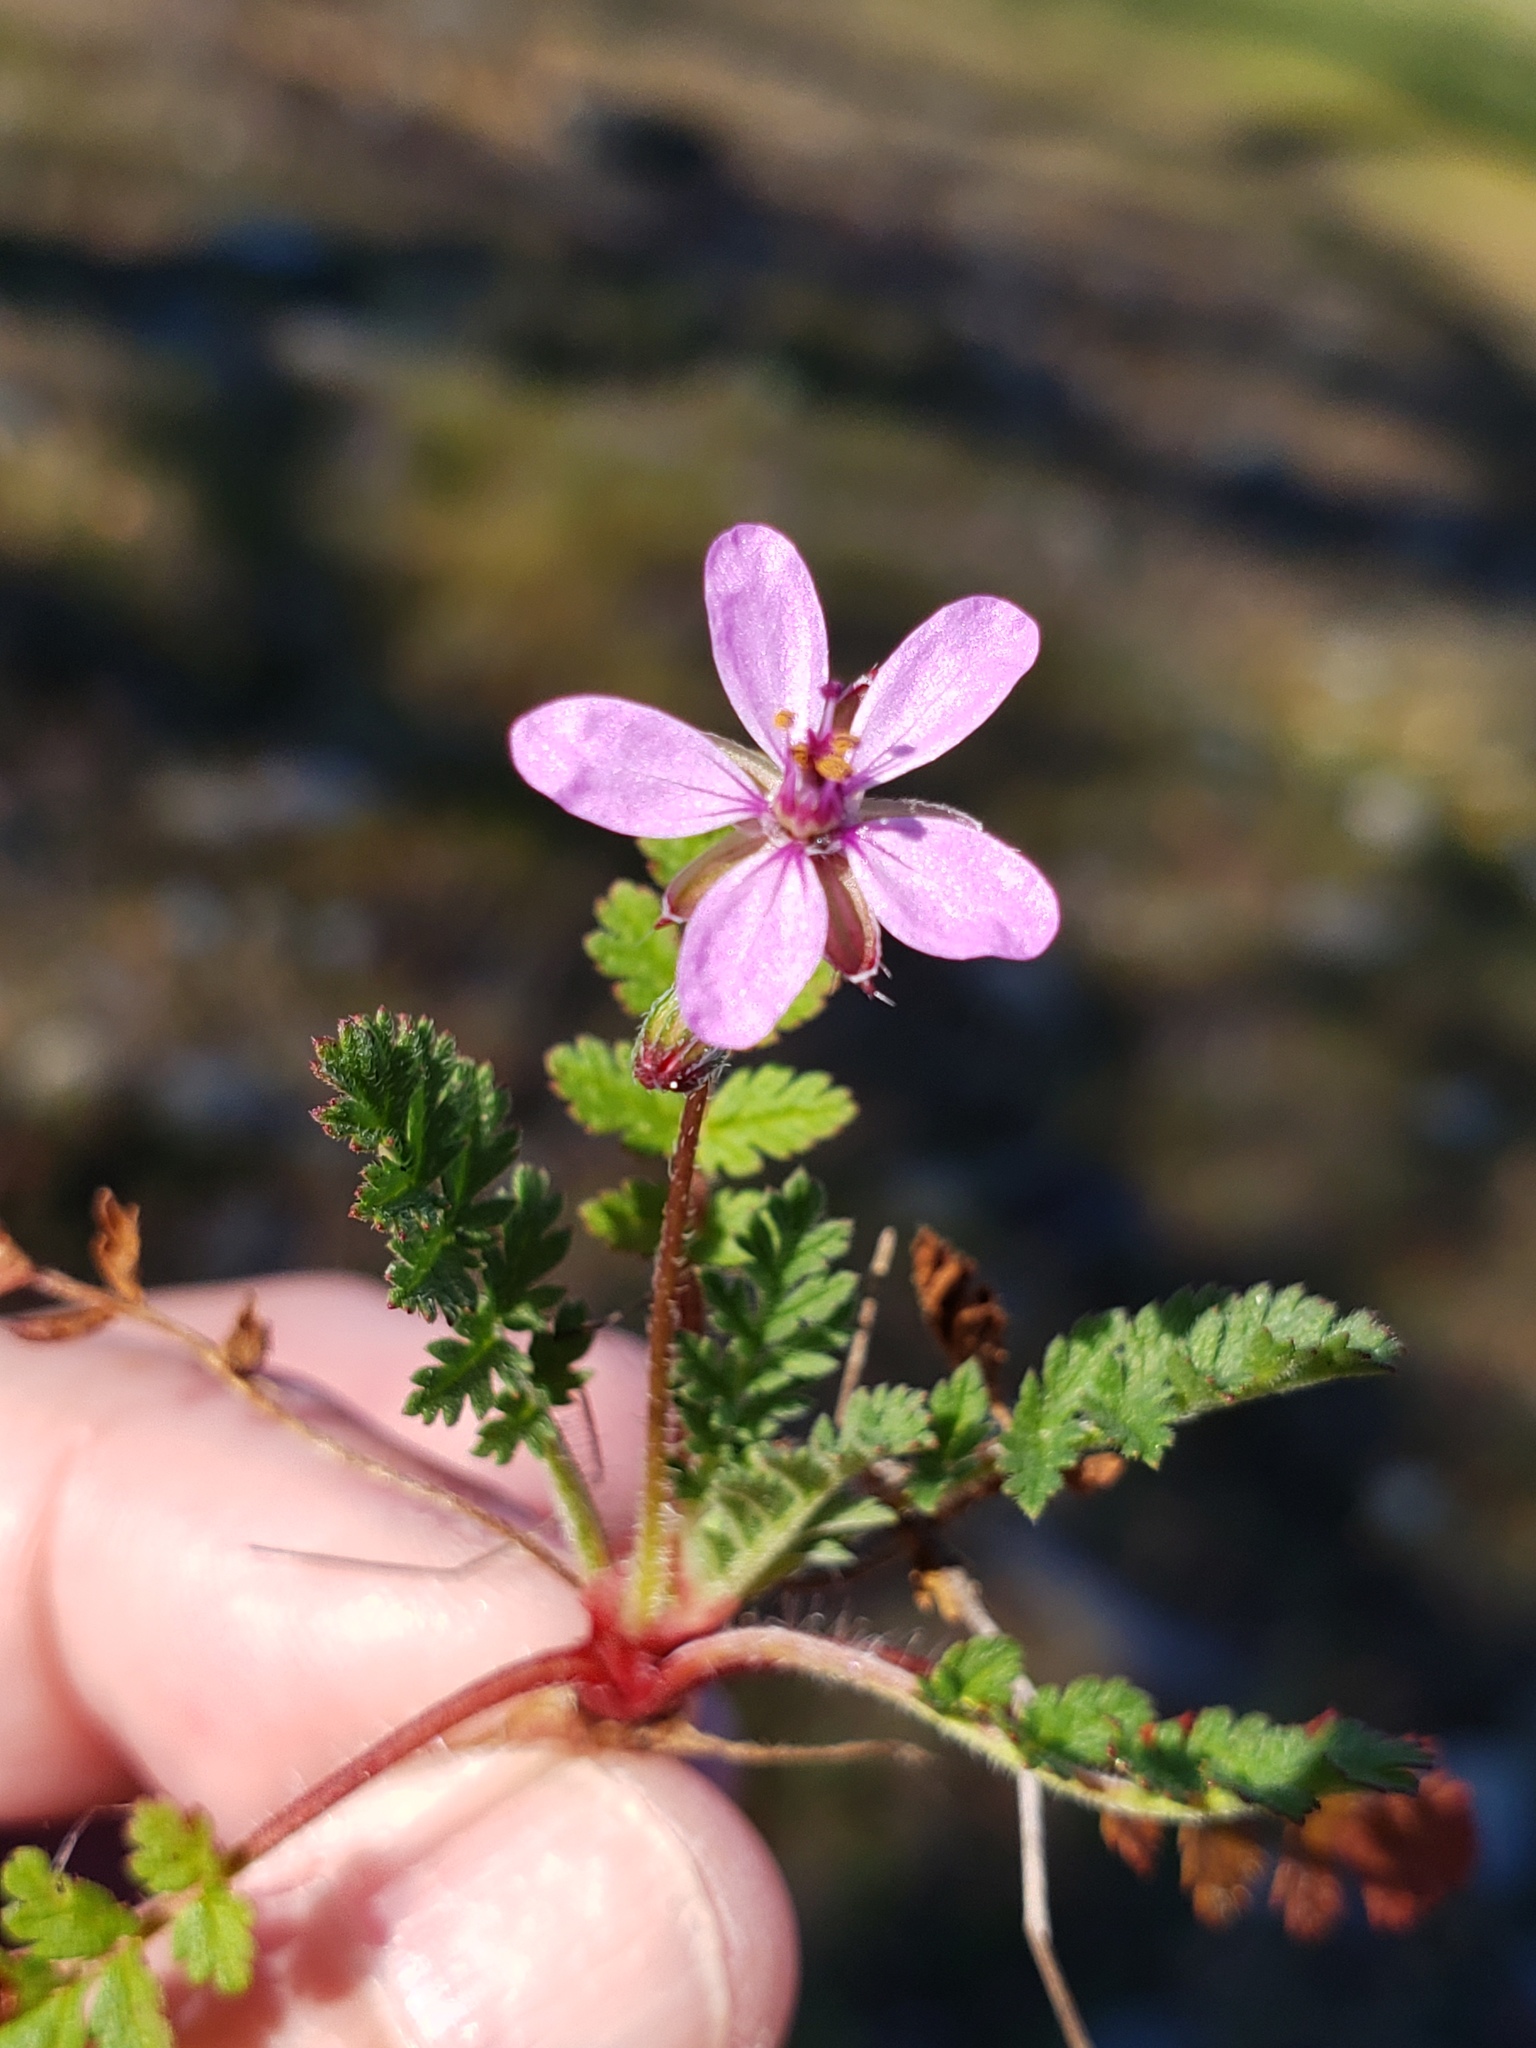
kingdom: Plantae
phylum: Tracheophyta
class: Magnoliopsida
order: Geraniales
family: Geraniaceae
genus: Erodium
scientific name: Erodium cicutarium
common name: Common stork's-bill
